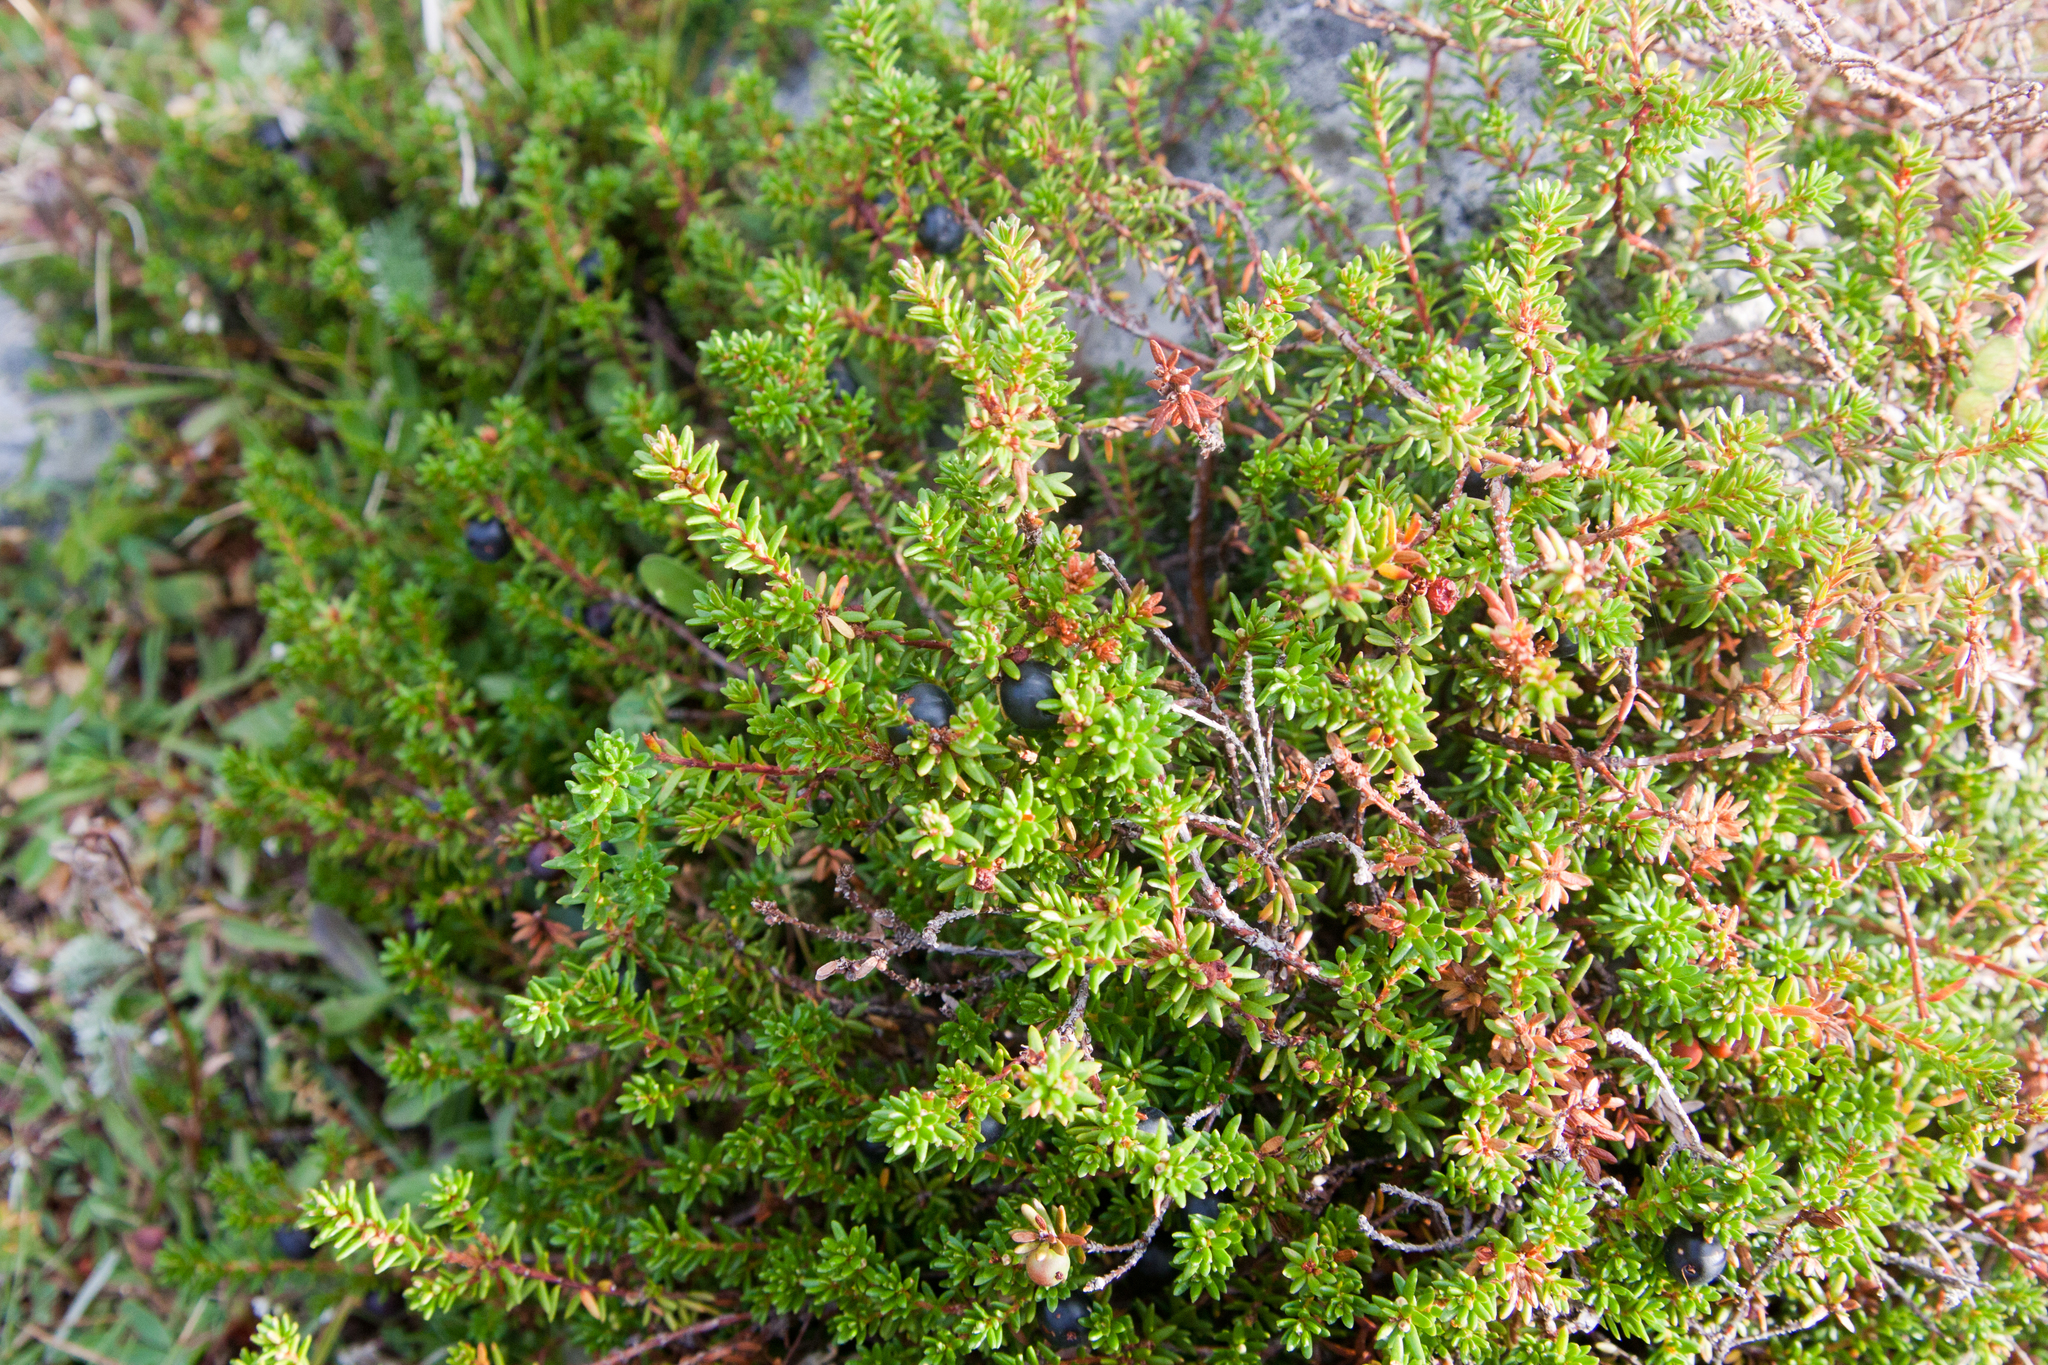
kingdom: Plantae
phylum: Tracheophyta
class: Magnoliopsida
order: Ericales
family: Ericaceae
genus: Empetrum
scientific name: Empetrum nigrum
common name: Black crowberry
